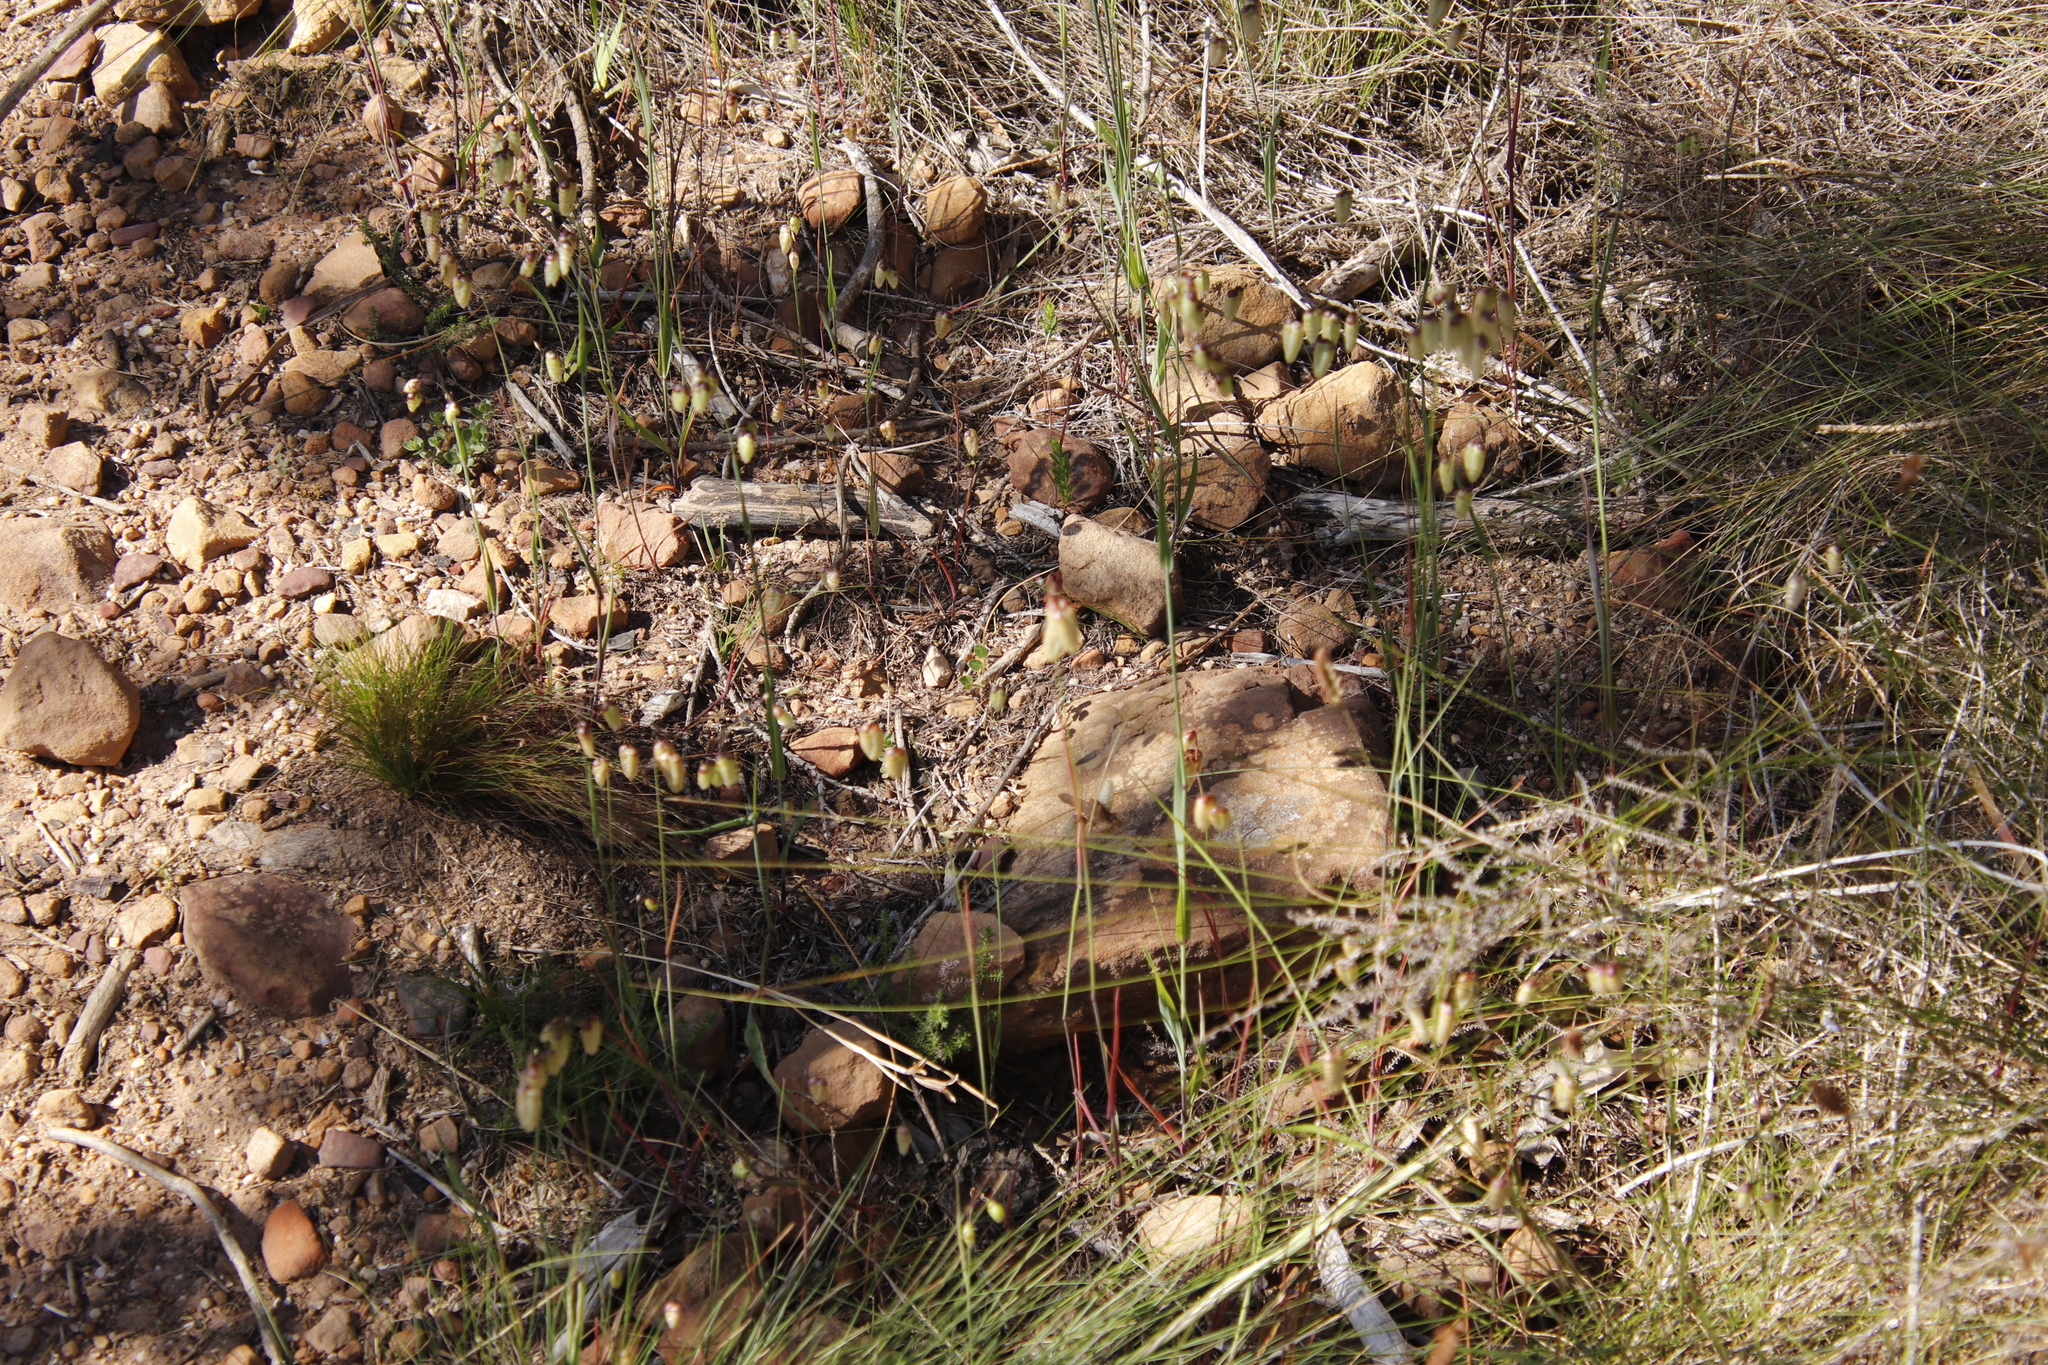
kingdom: Plantae
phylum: Tracheophyta
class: Liliopsida
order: Poales
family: Poaceae
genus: Briza
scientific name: Briza maxima
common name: Big quakinggrass
